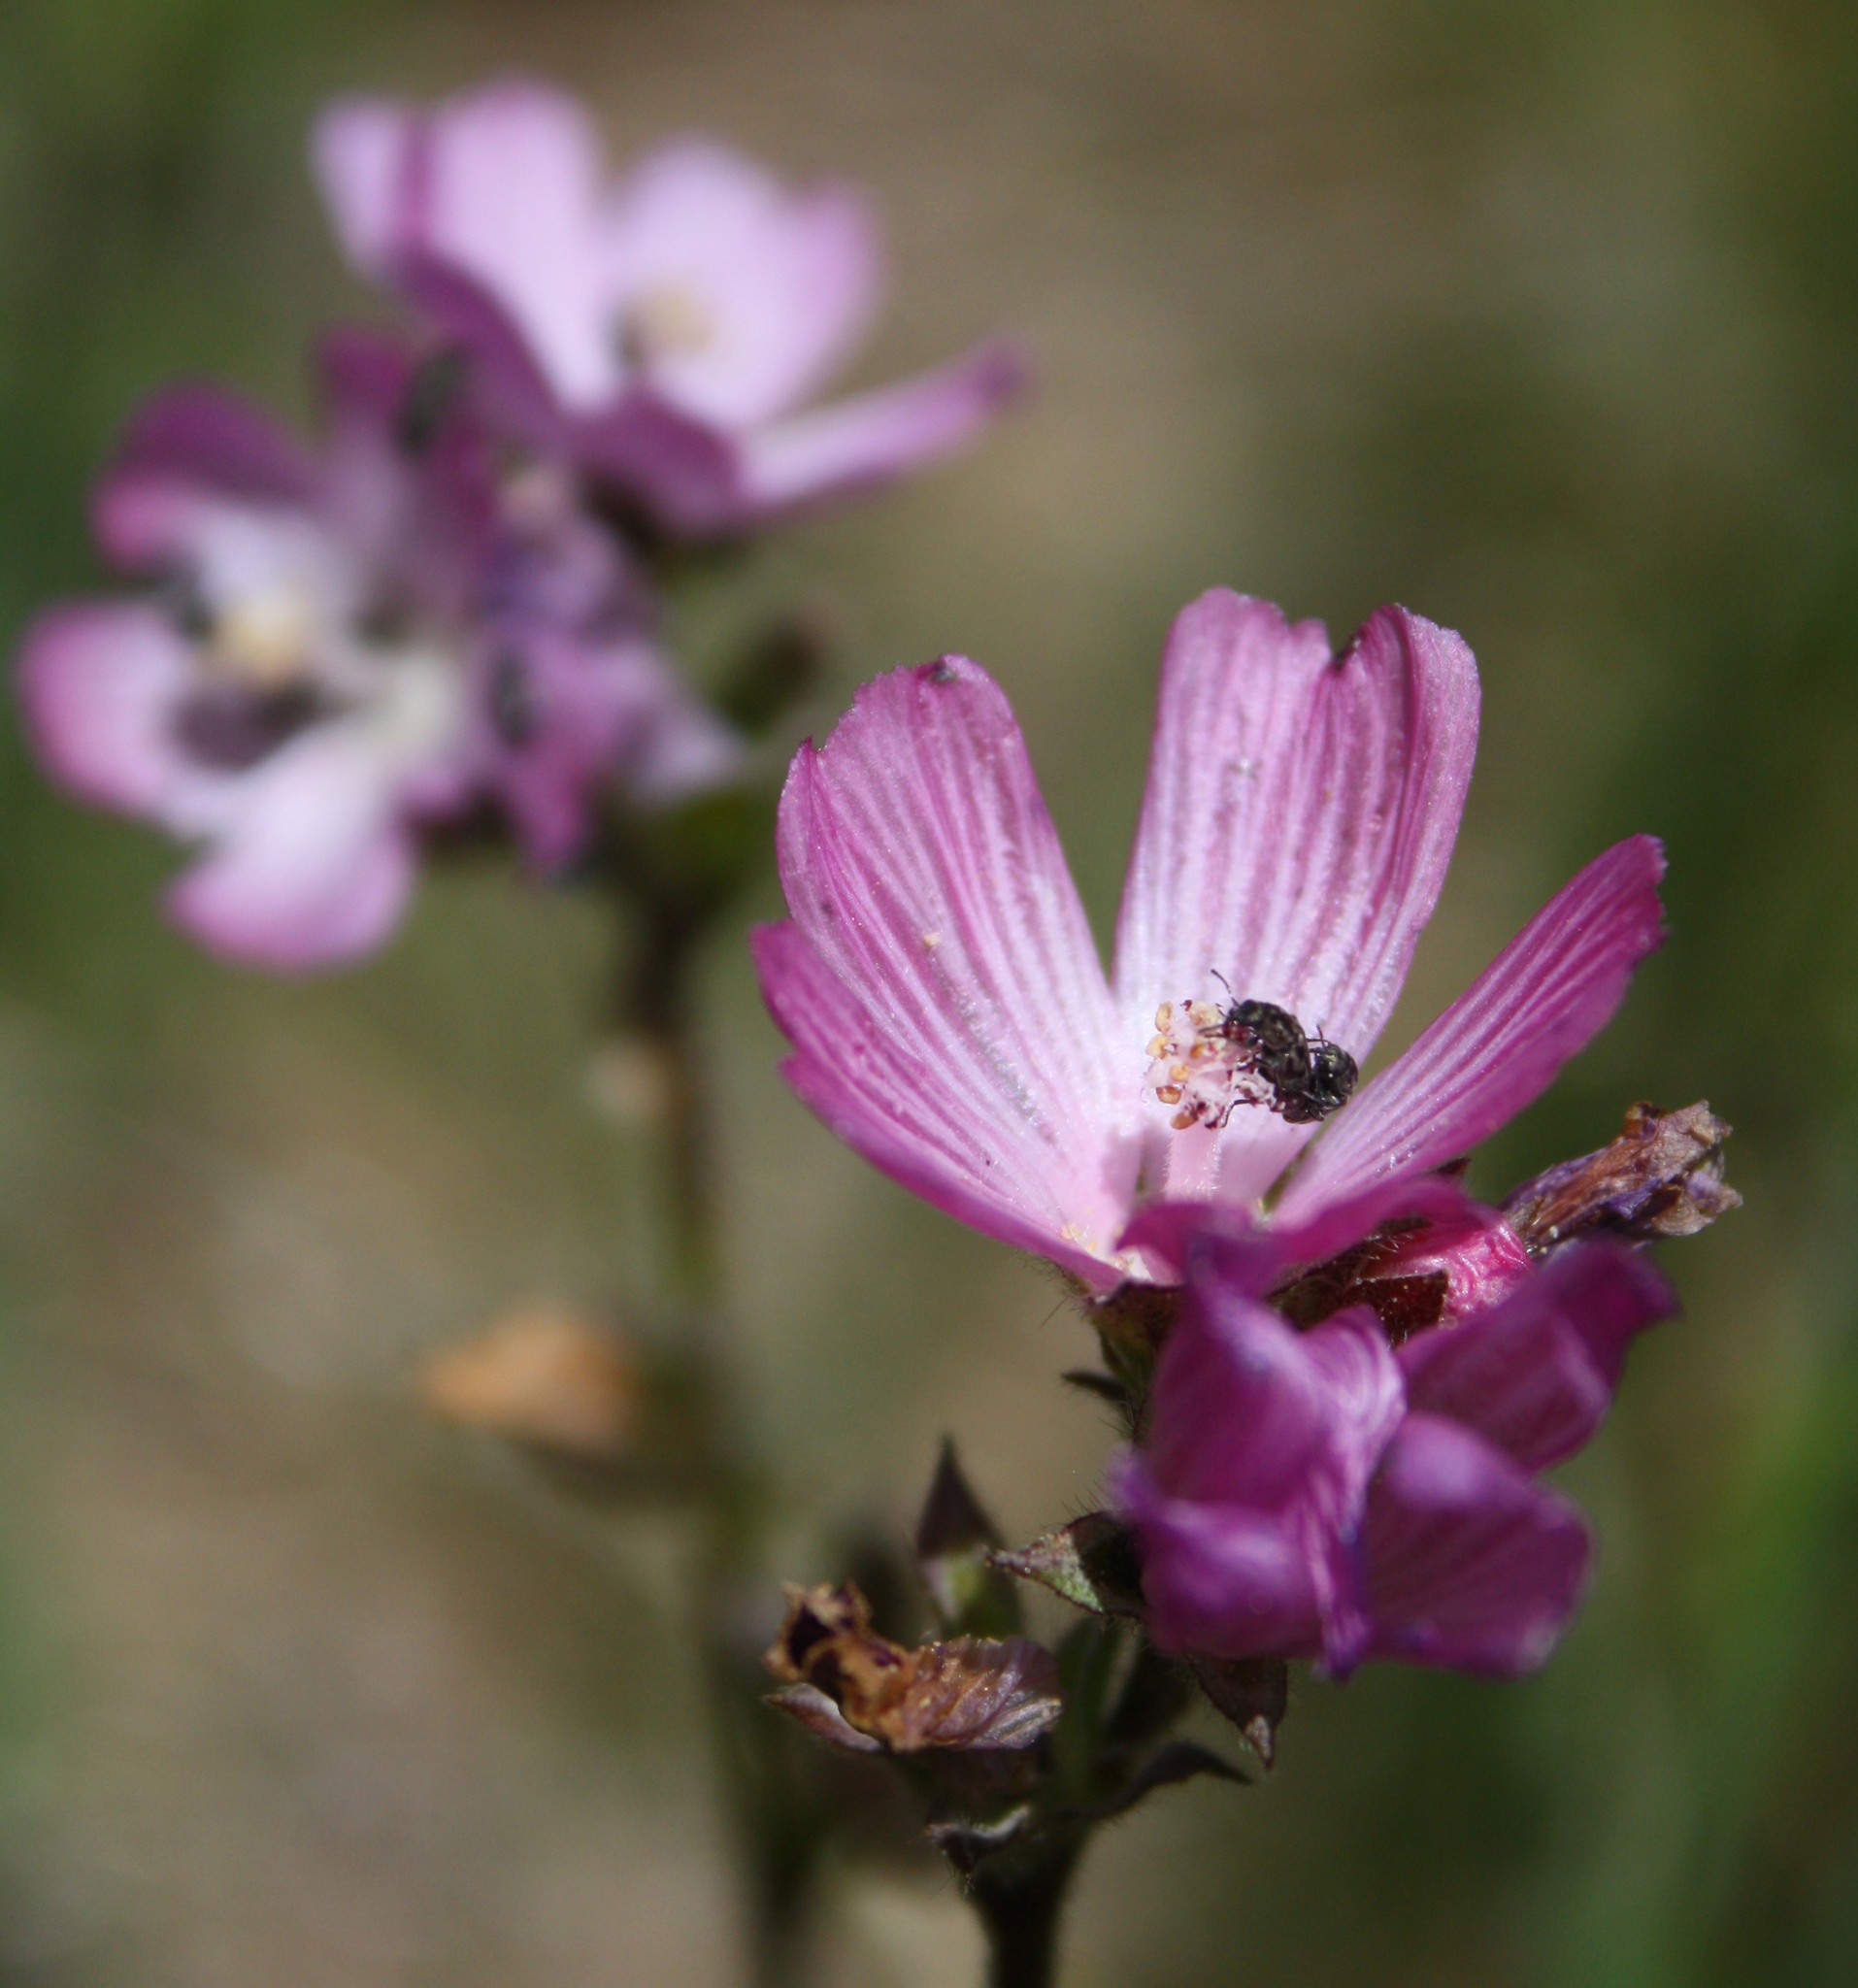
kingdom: Plantae
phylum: Tracheophyta
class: Magnoliopsida
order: Malvales
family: Malvaceae
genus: Sidalcea
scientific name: Sidalcea malviflora
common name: Greek mallow
